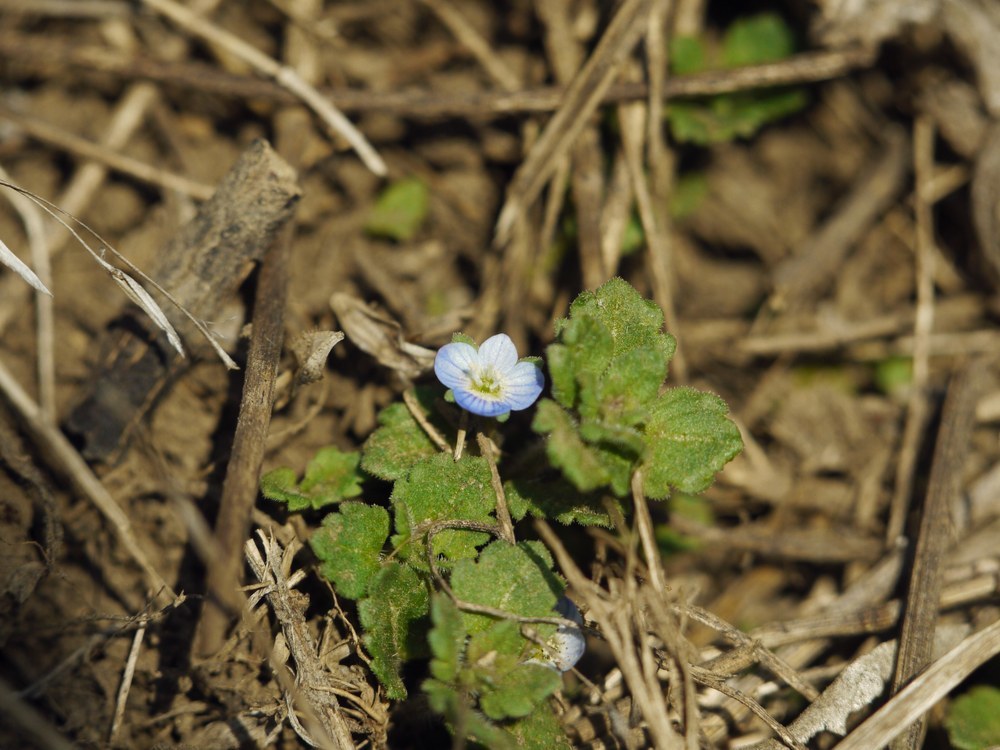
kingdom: Plantae
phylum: Tracheophyta
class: Magnoliopsida
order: Lamiales
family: Plantaginaceae
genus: Veronica
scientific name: Veronica polita
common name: Grey field-speedwell
